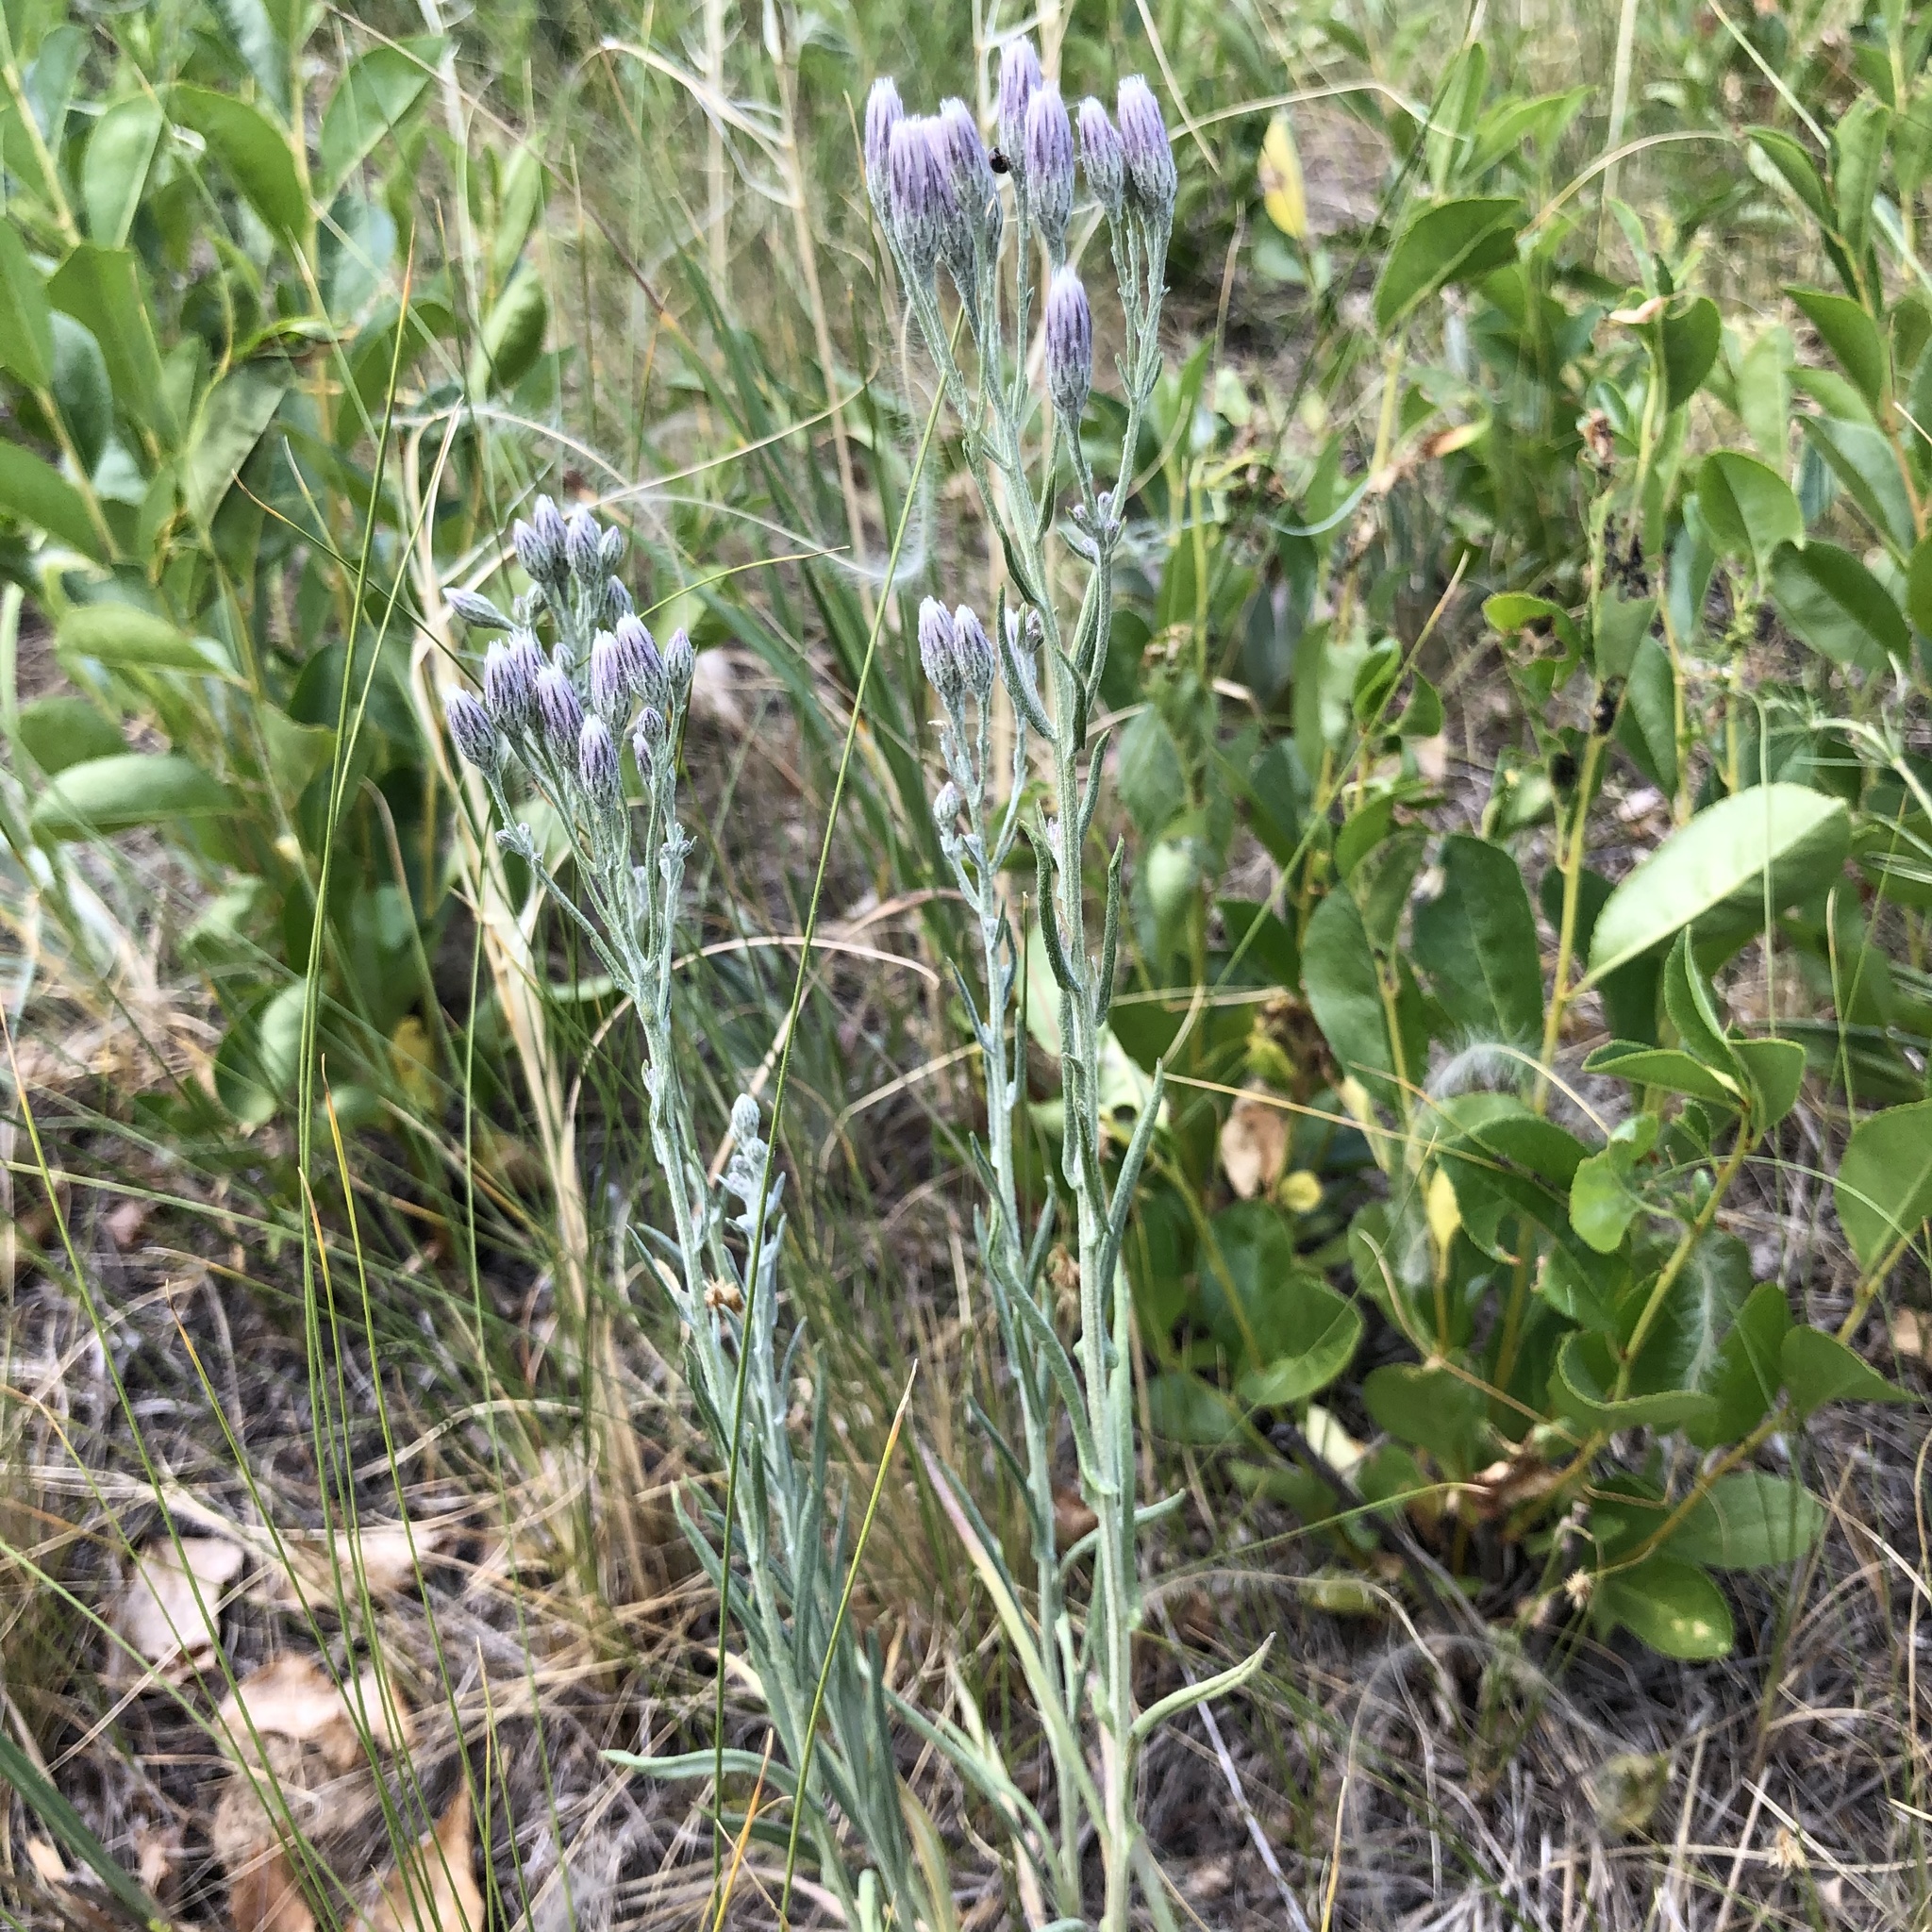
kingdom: Plantae
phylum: Tracheophyta
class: Magnoliopsida
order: Asterales
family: Asteraceae
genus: Jurinea
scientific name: Jurinea multiflora
